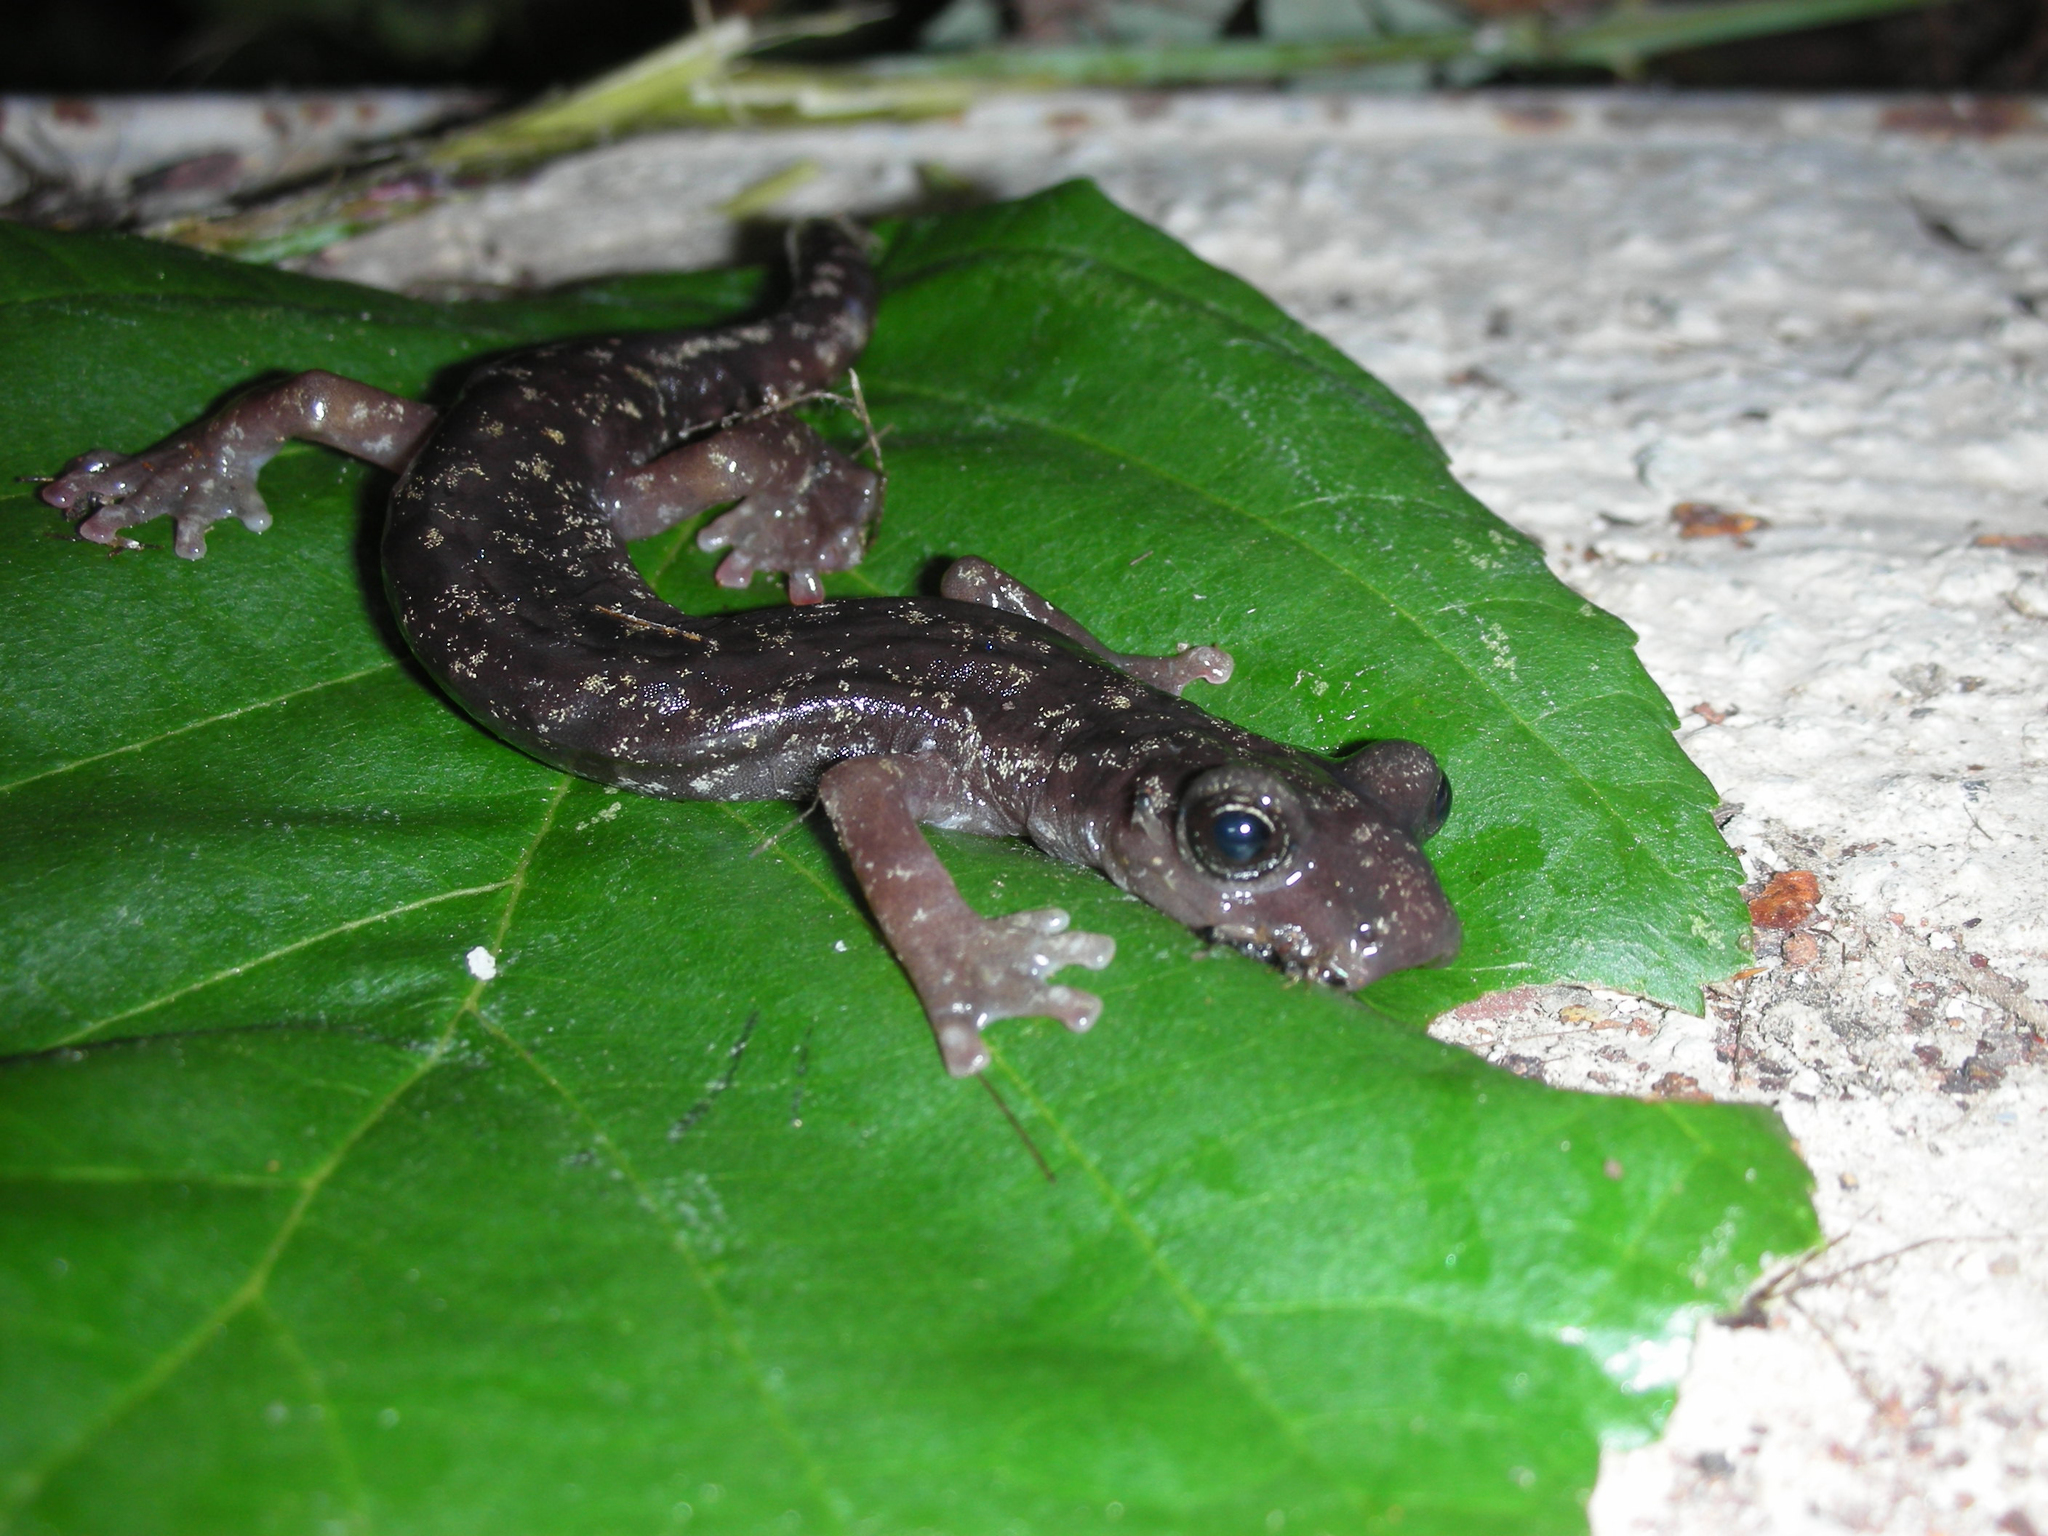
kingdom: Animalia
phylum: Chordata
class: Amphibia
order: Caudata
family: Plethodontidae
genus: Speleomantes
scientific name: Speleomantes imperialis
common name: Imperial cave salamander
